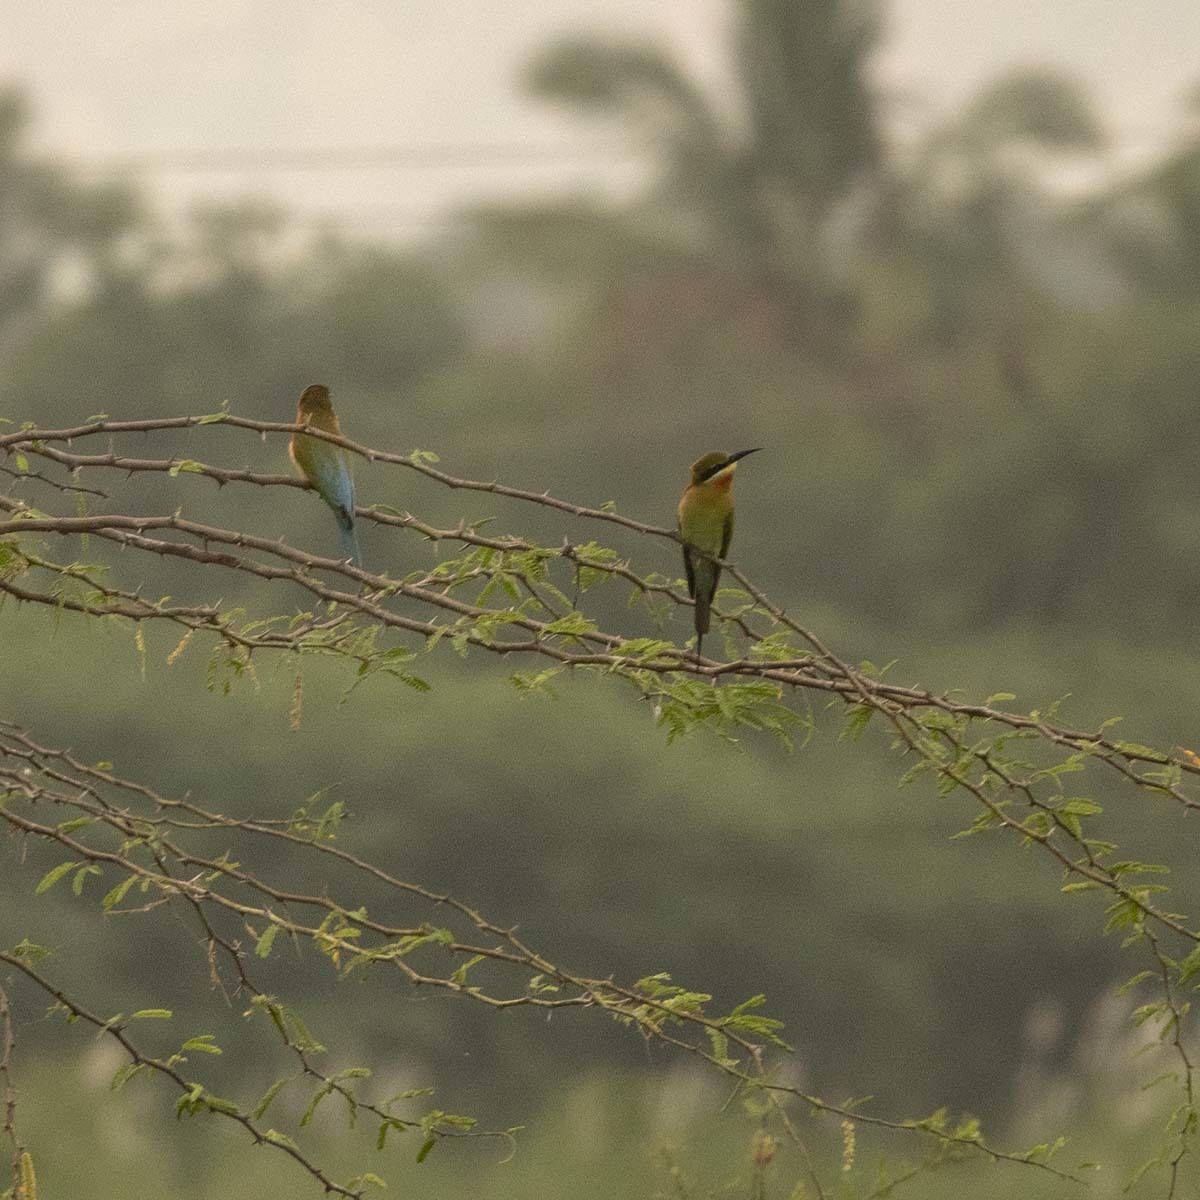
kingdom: Animalia
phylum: Chordata
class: Aves
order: Coraciiformes
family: Meropidae
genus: Merops
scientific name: Merops philippinus
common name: Blue-tailed bee-eater
